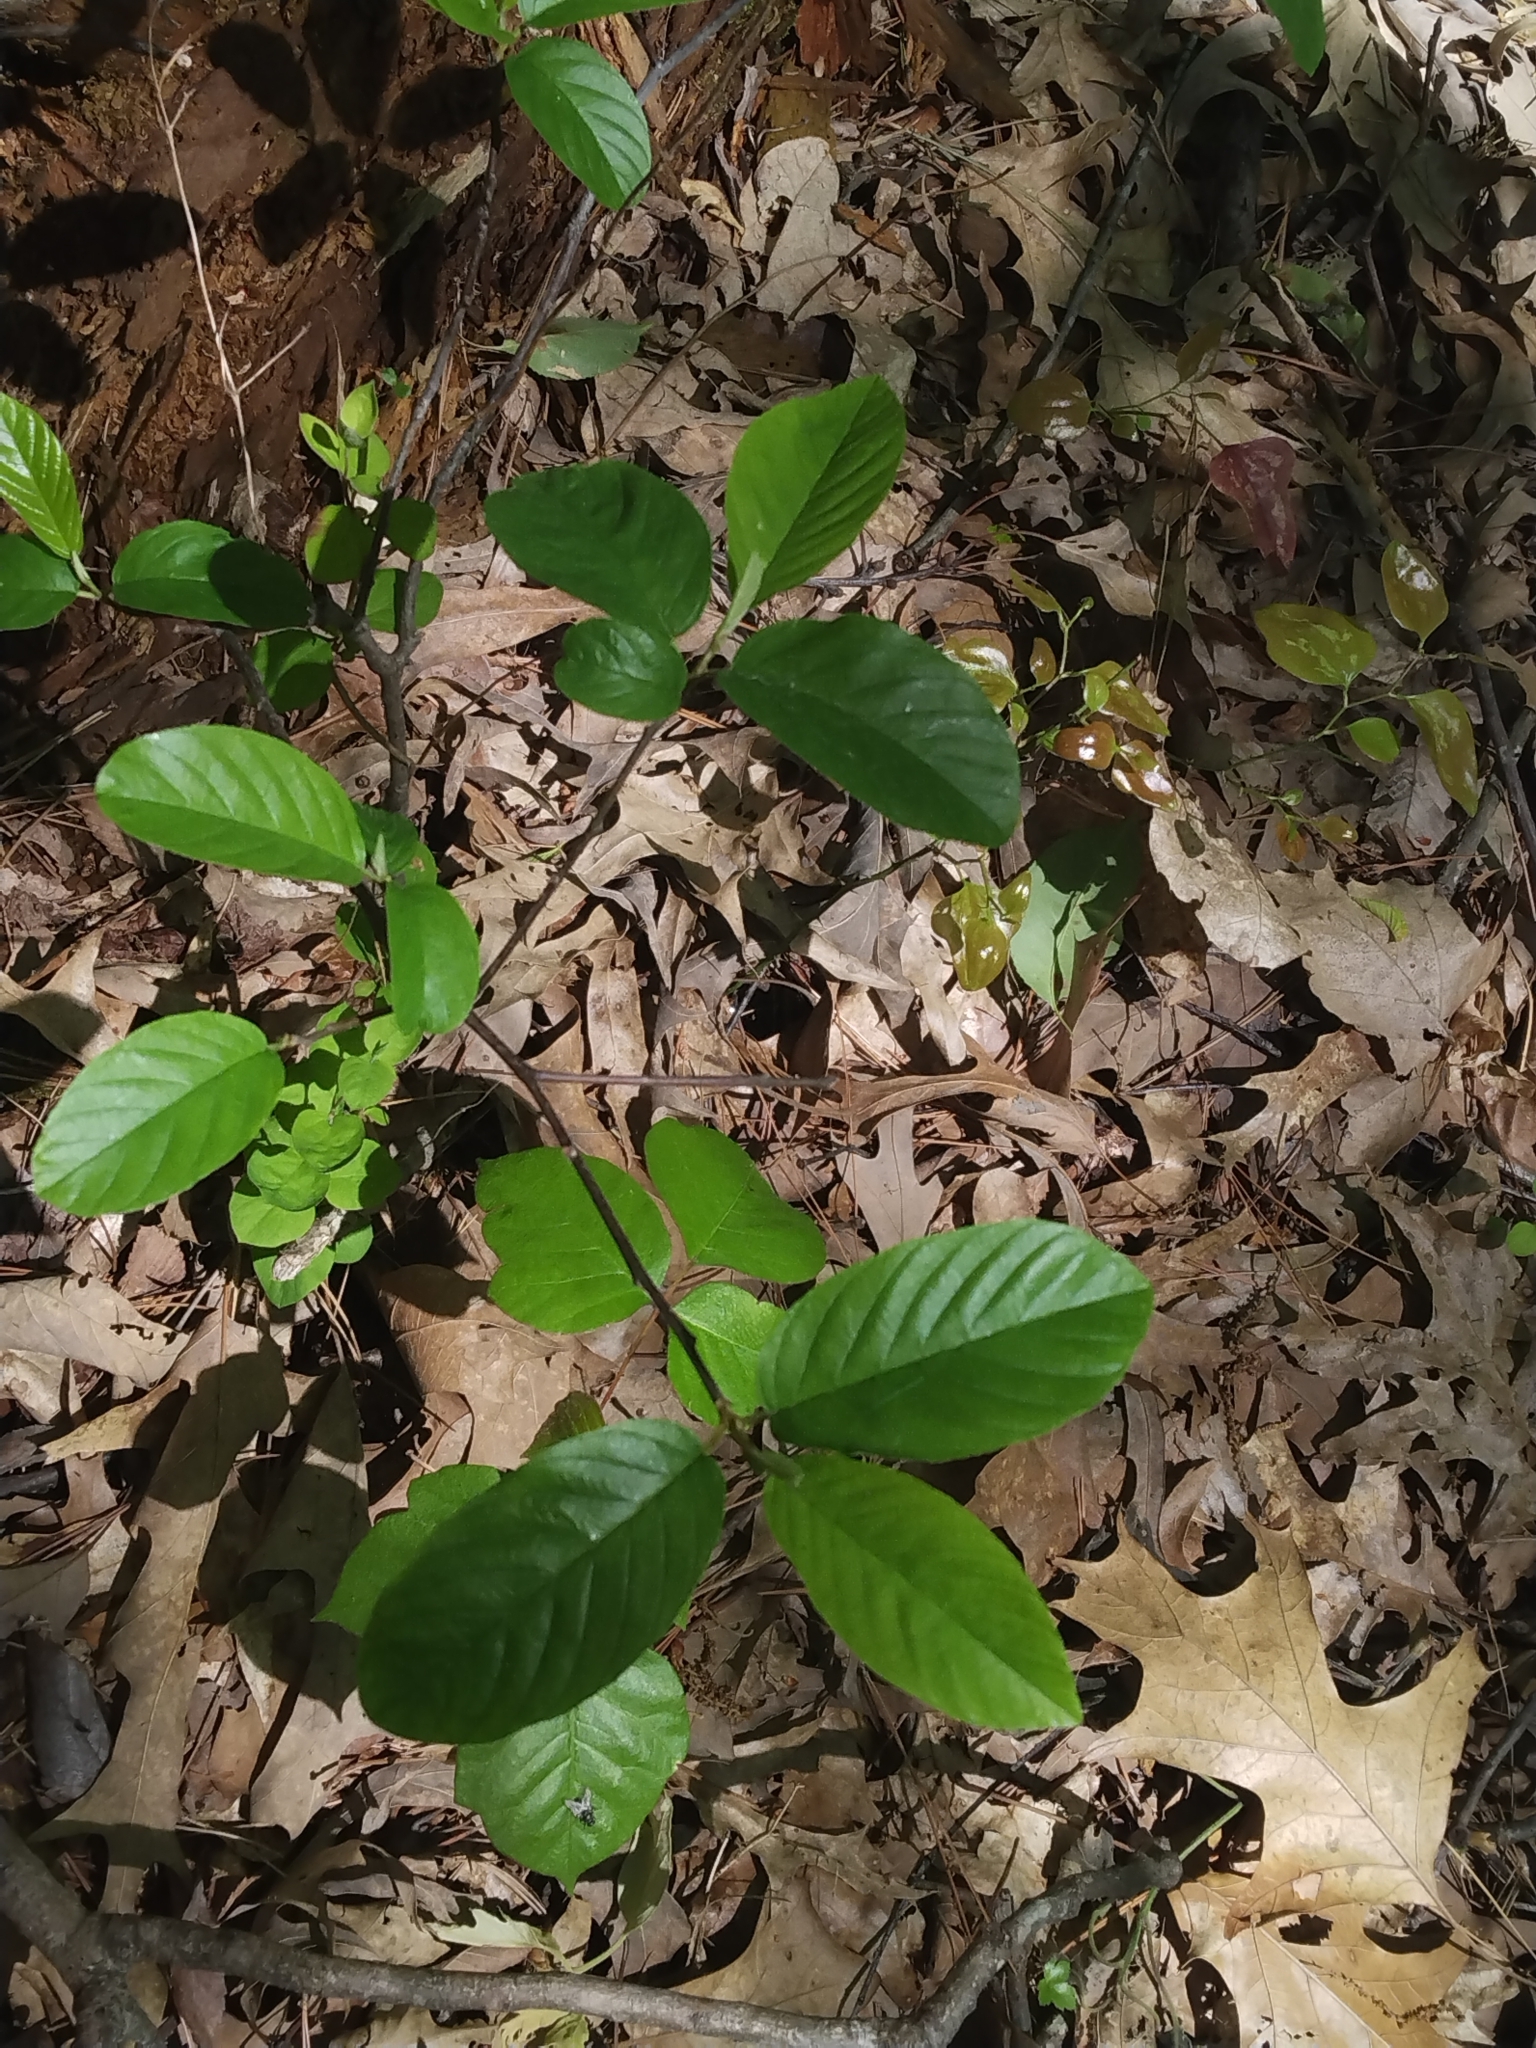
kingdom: Plantae
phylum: Tracheophyta
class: Magnoliopsida
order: Rosales
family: Rhamnaceae
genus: Frangula
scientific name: Frangula caroliniana
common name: Carolina buckthorn
